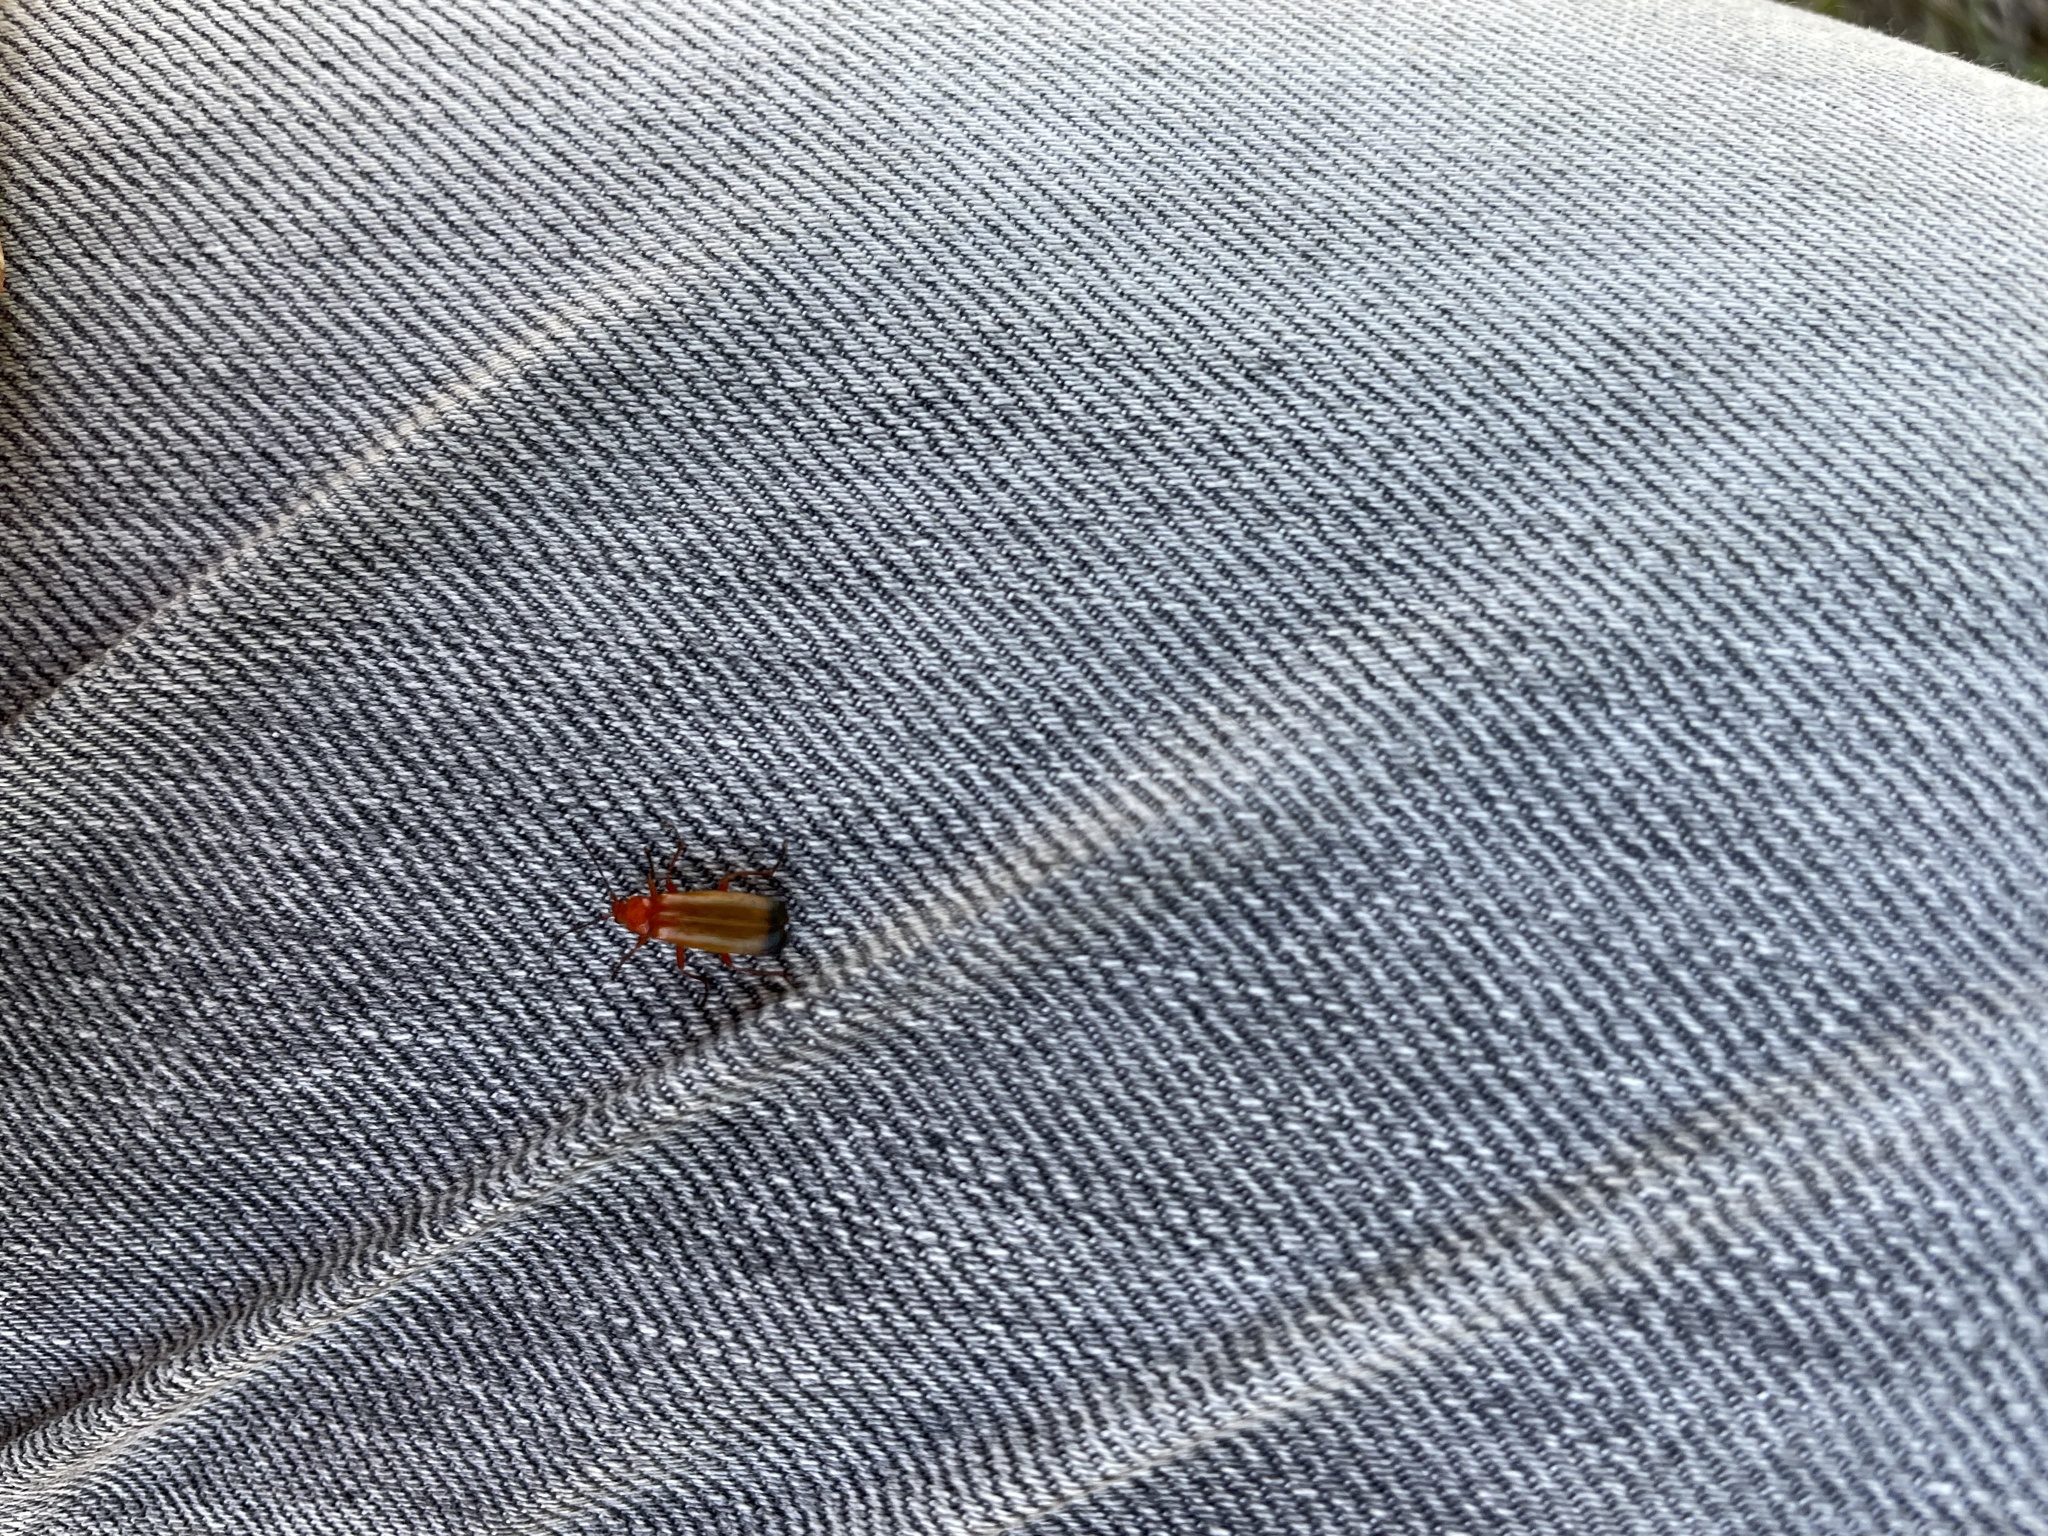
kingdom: Animalia
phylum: Arthropoda
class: Insecta
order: Coleoptera
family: Cantharidae
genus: Rhagonycha
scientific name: Rhagonycha fulva
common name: Common red soldier beetle
